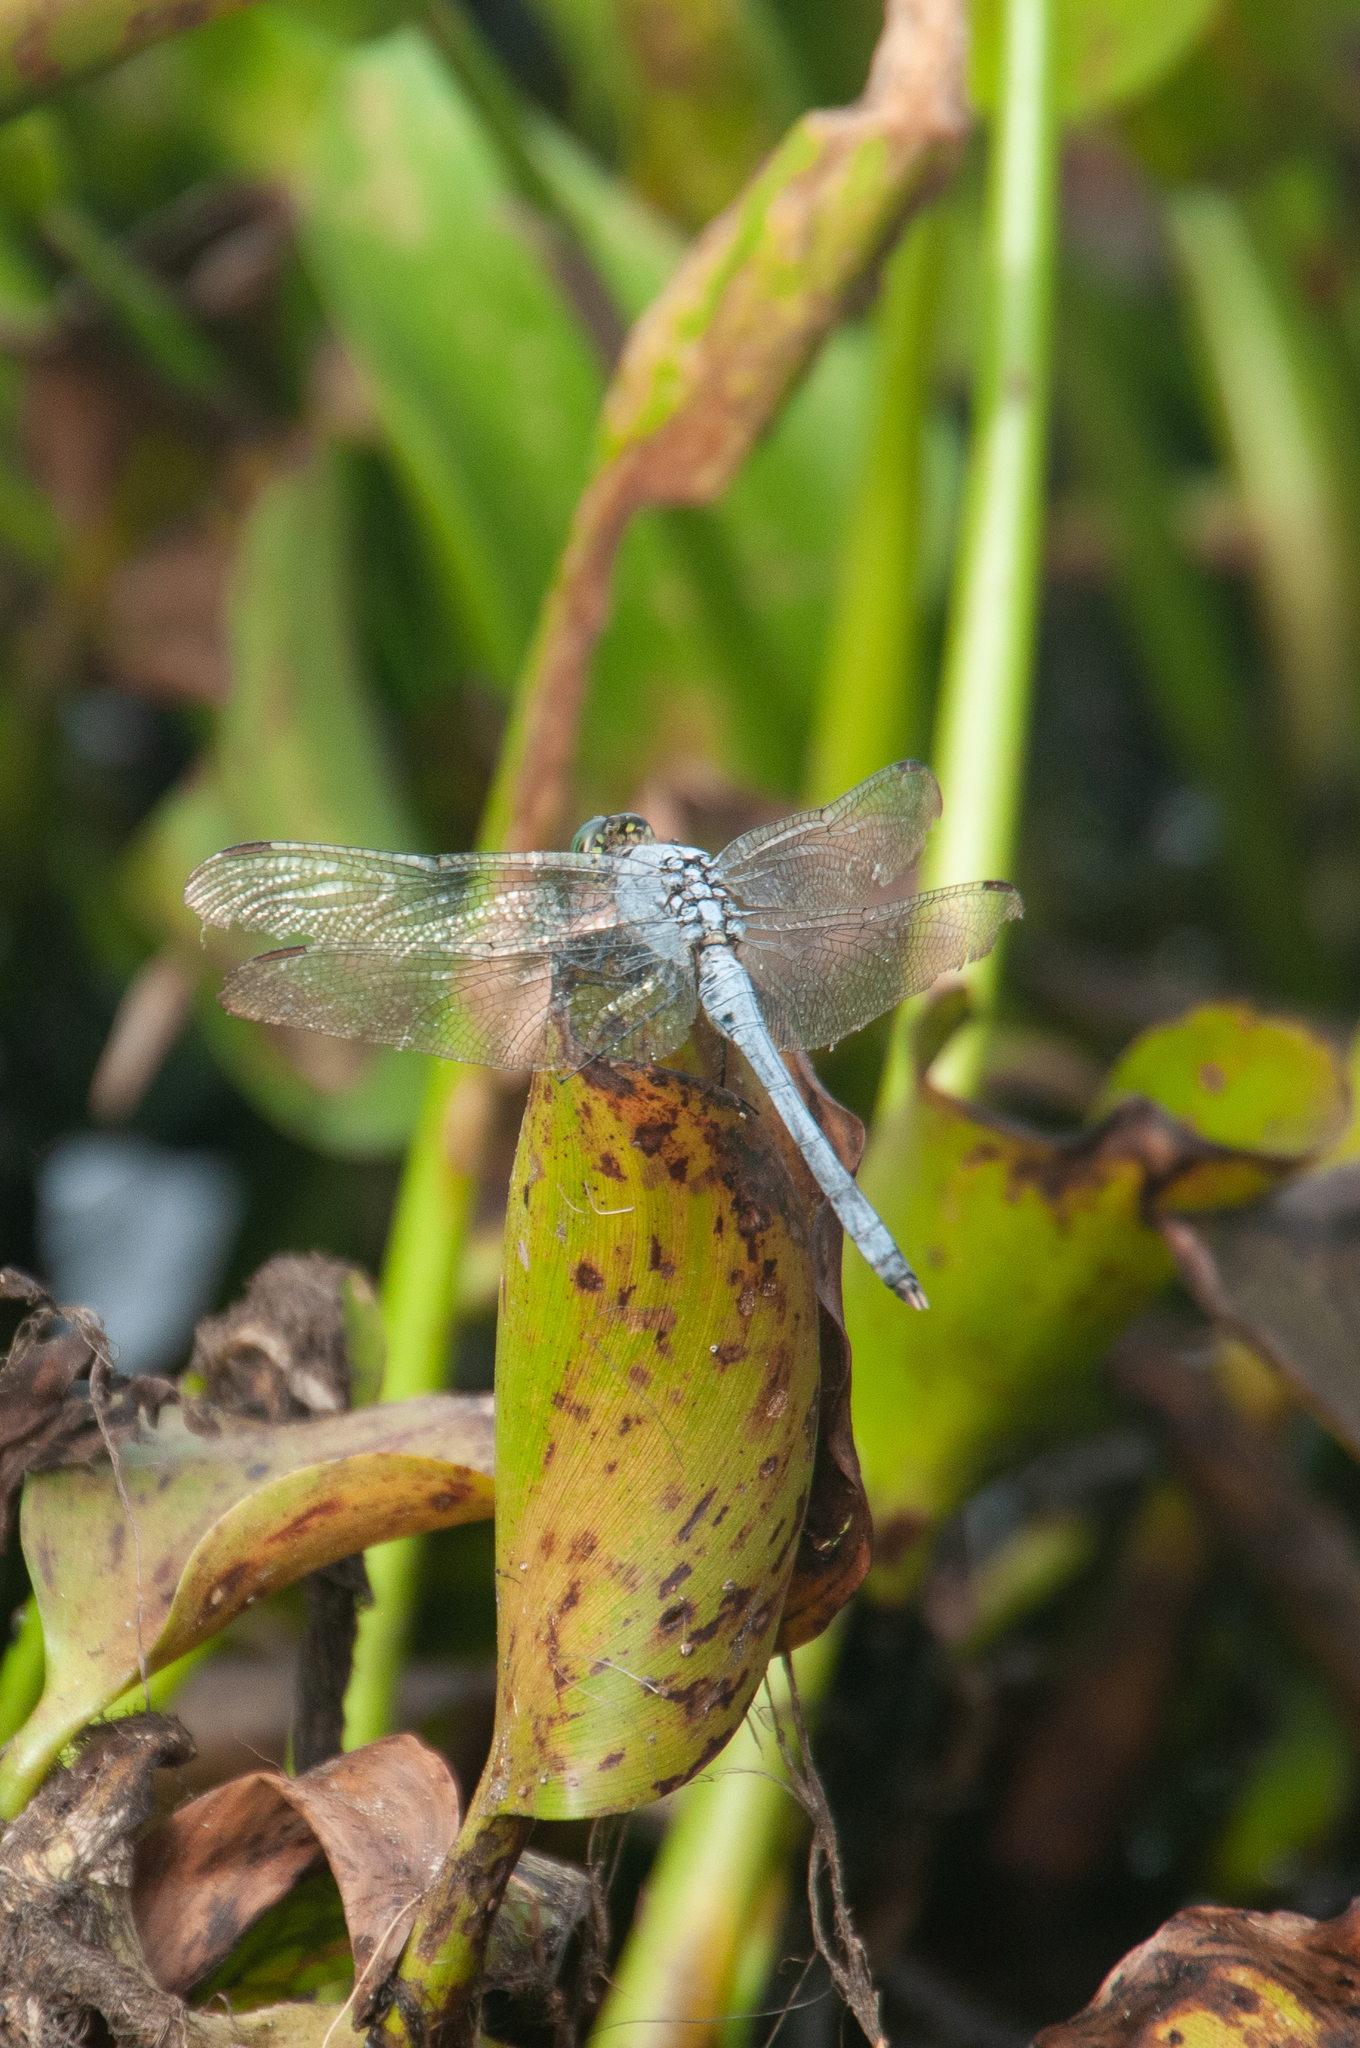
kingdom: Animalia
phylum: Arthropoda
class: Insecta
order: Odonata
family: Libellulidae
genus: Erythemis
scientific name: Erythemis simplicicollis
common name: Eastern pondhawk
